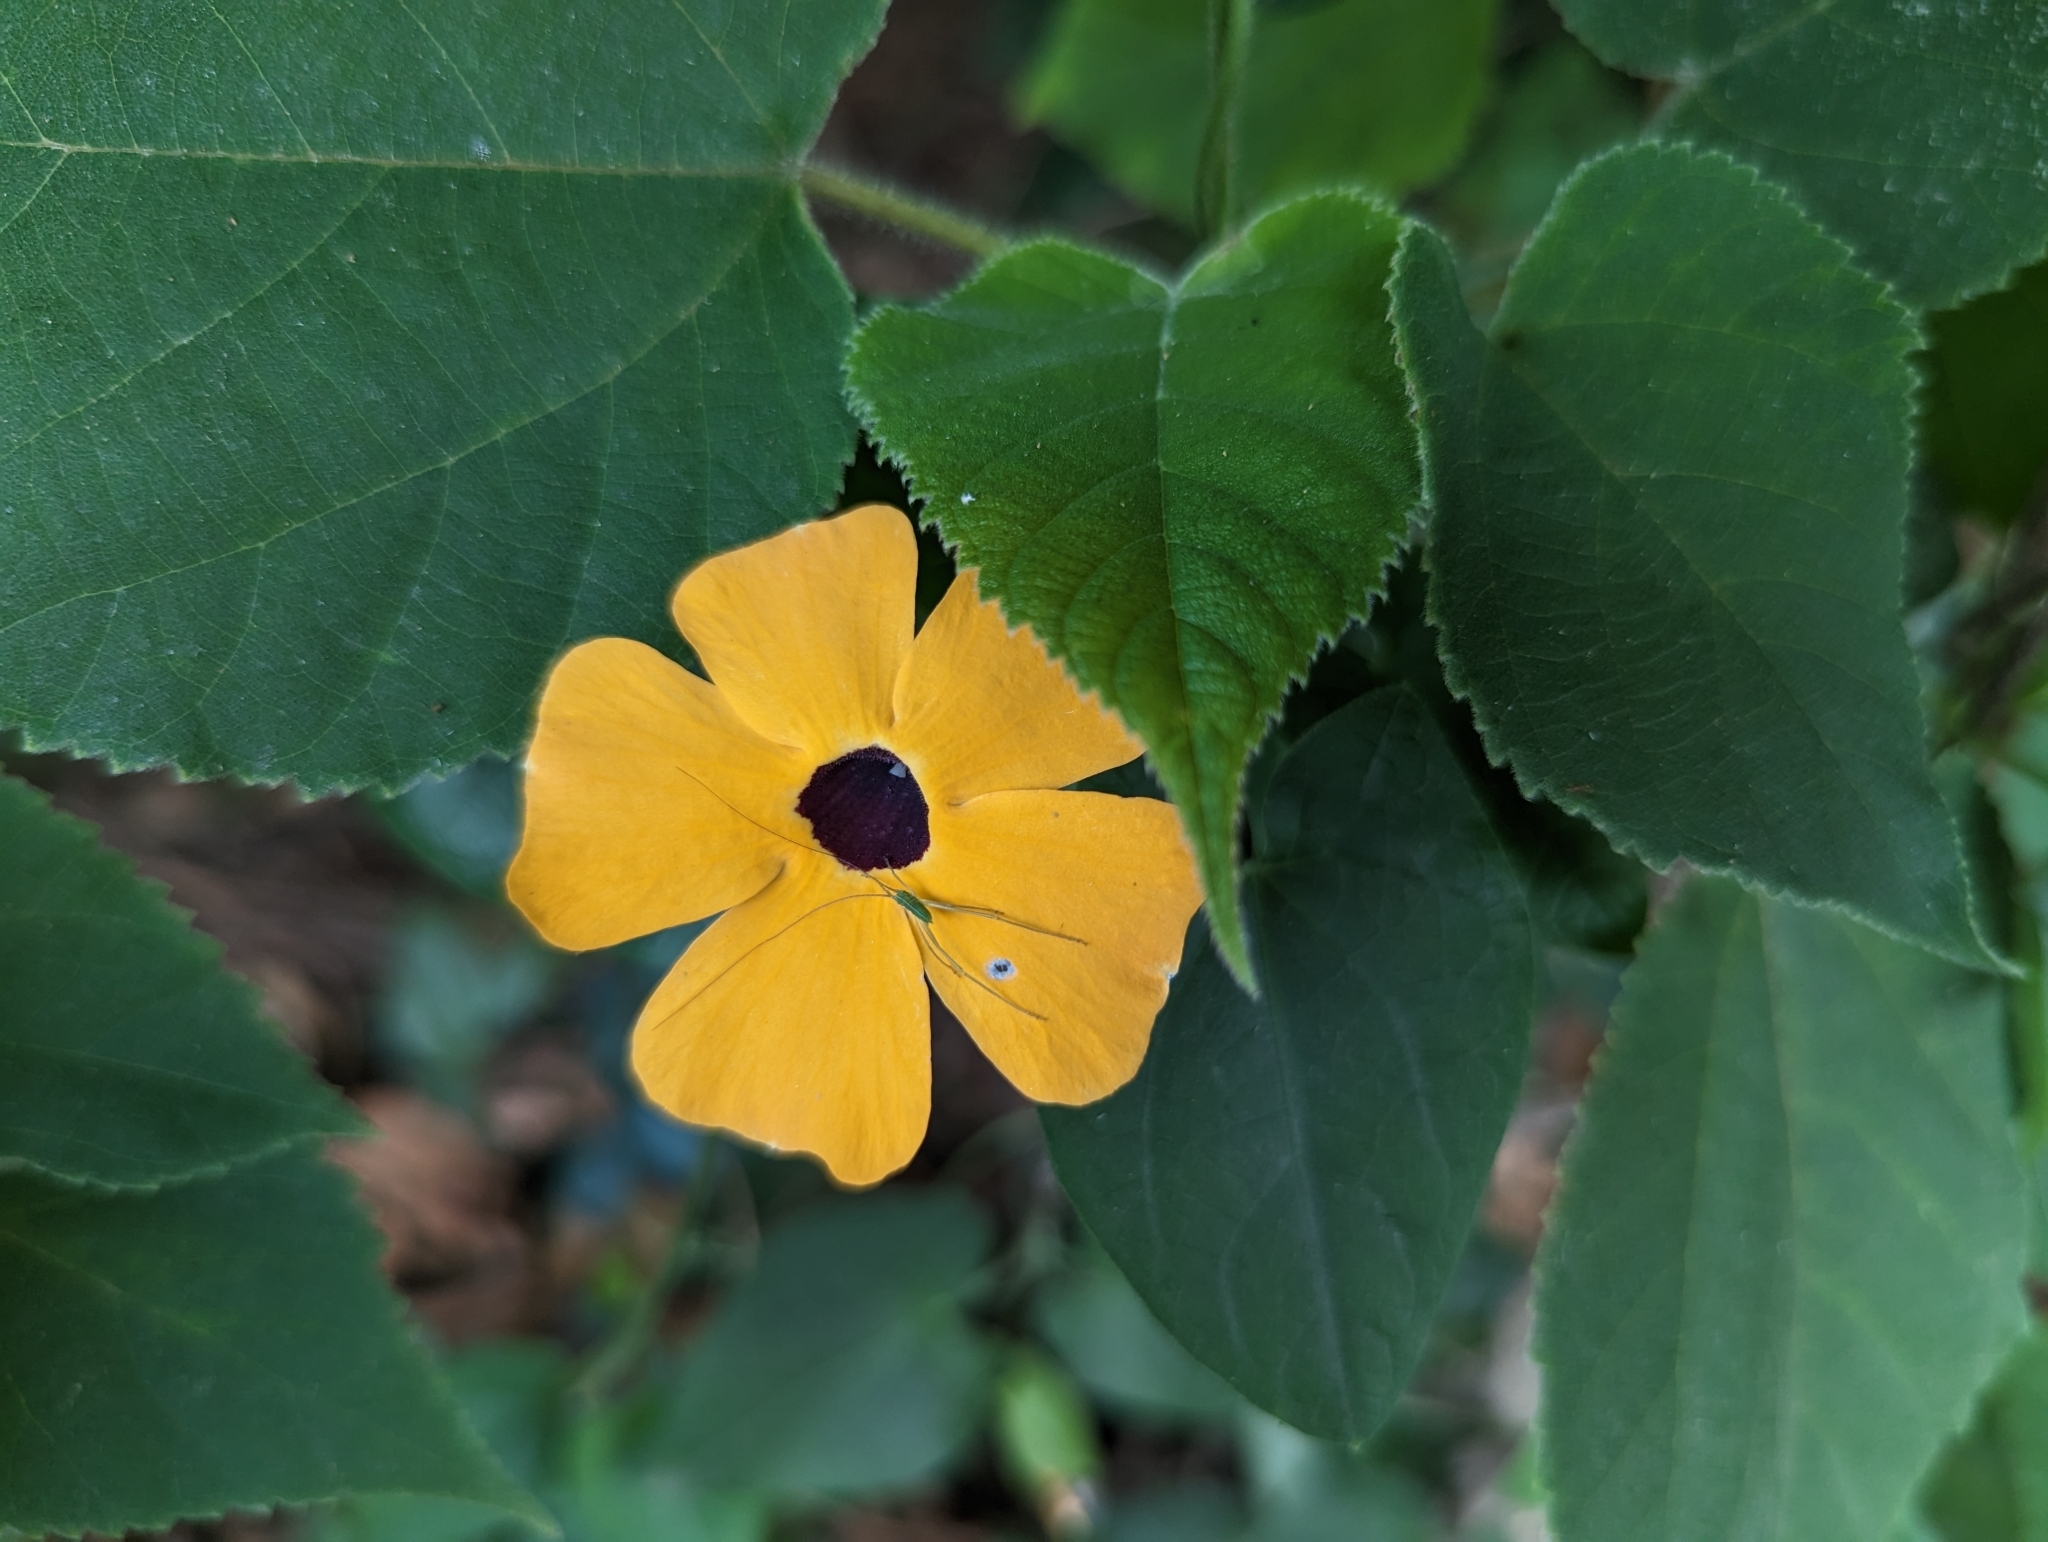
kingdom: Plantae
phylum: Tracheophyta
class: Magnoliopsida
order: Lamiales
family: Acanthaceae
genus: Thunbergia
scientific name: Thunbergia alata
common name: Blackeyed susan vine
